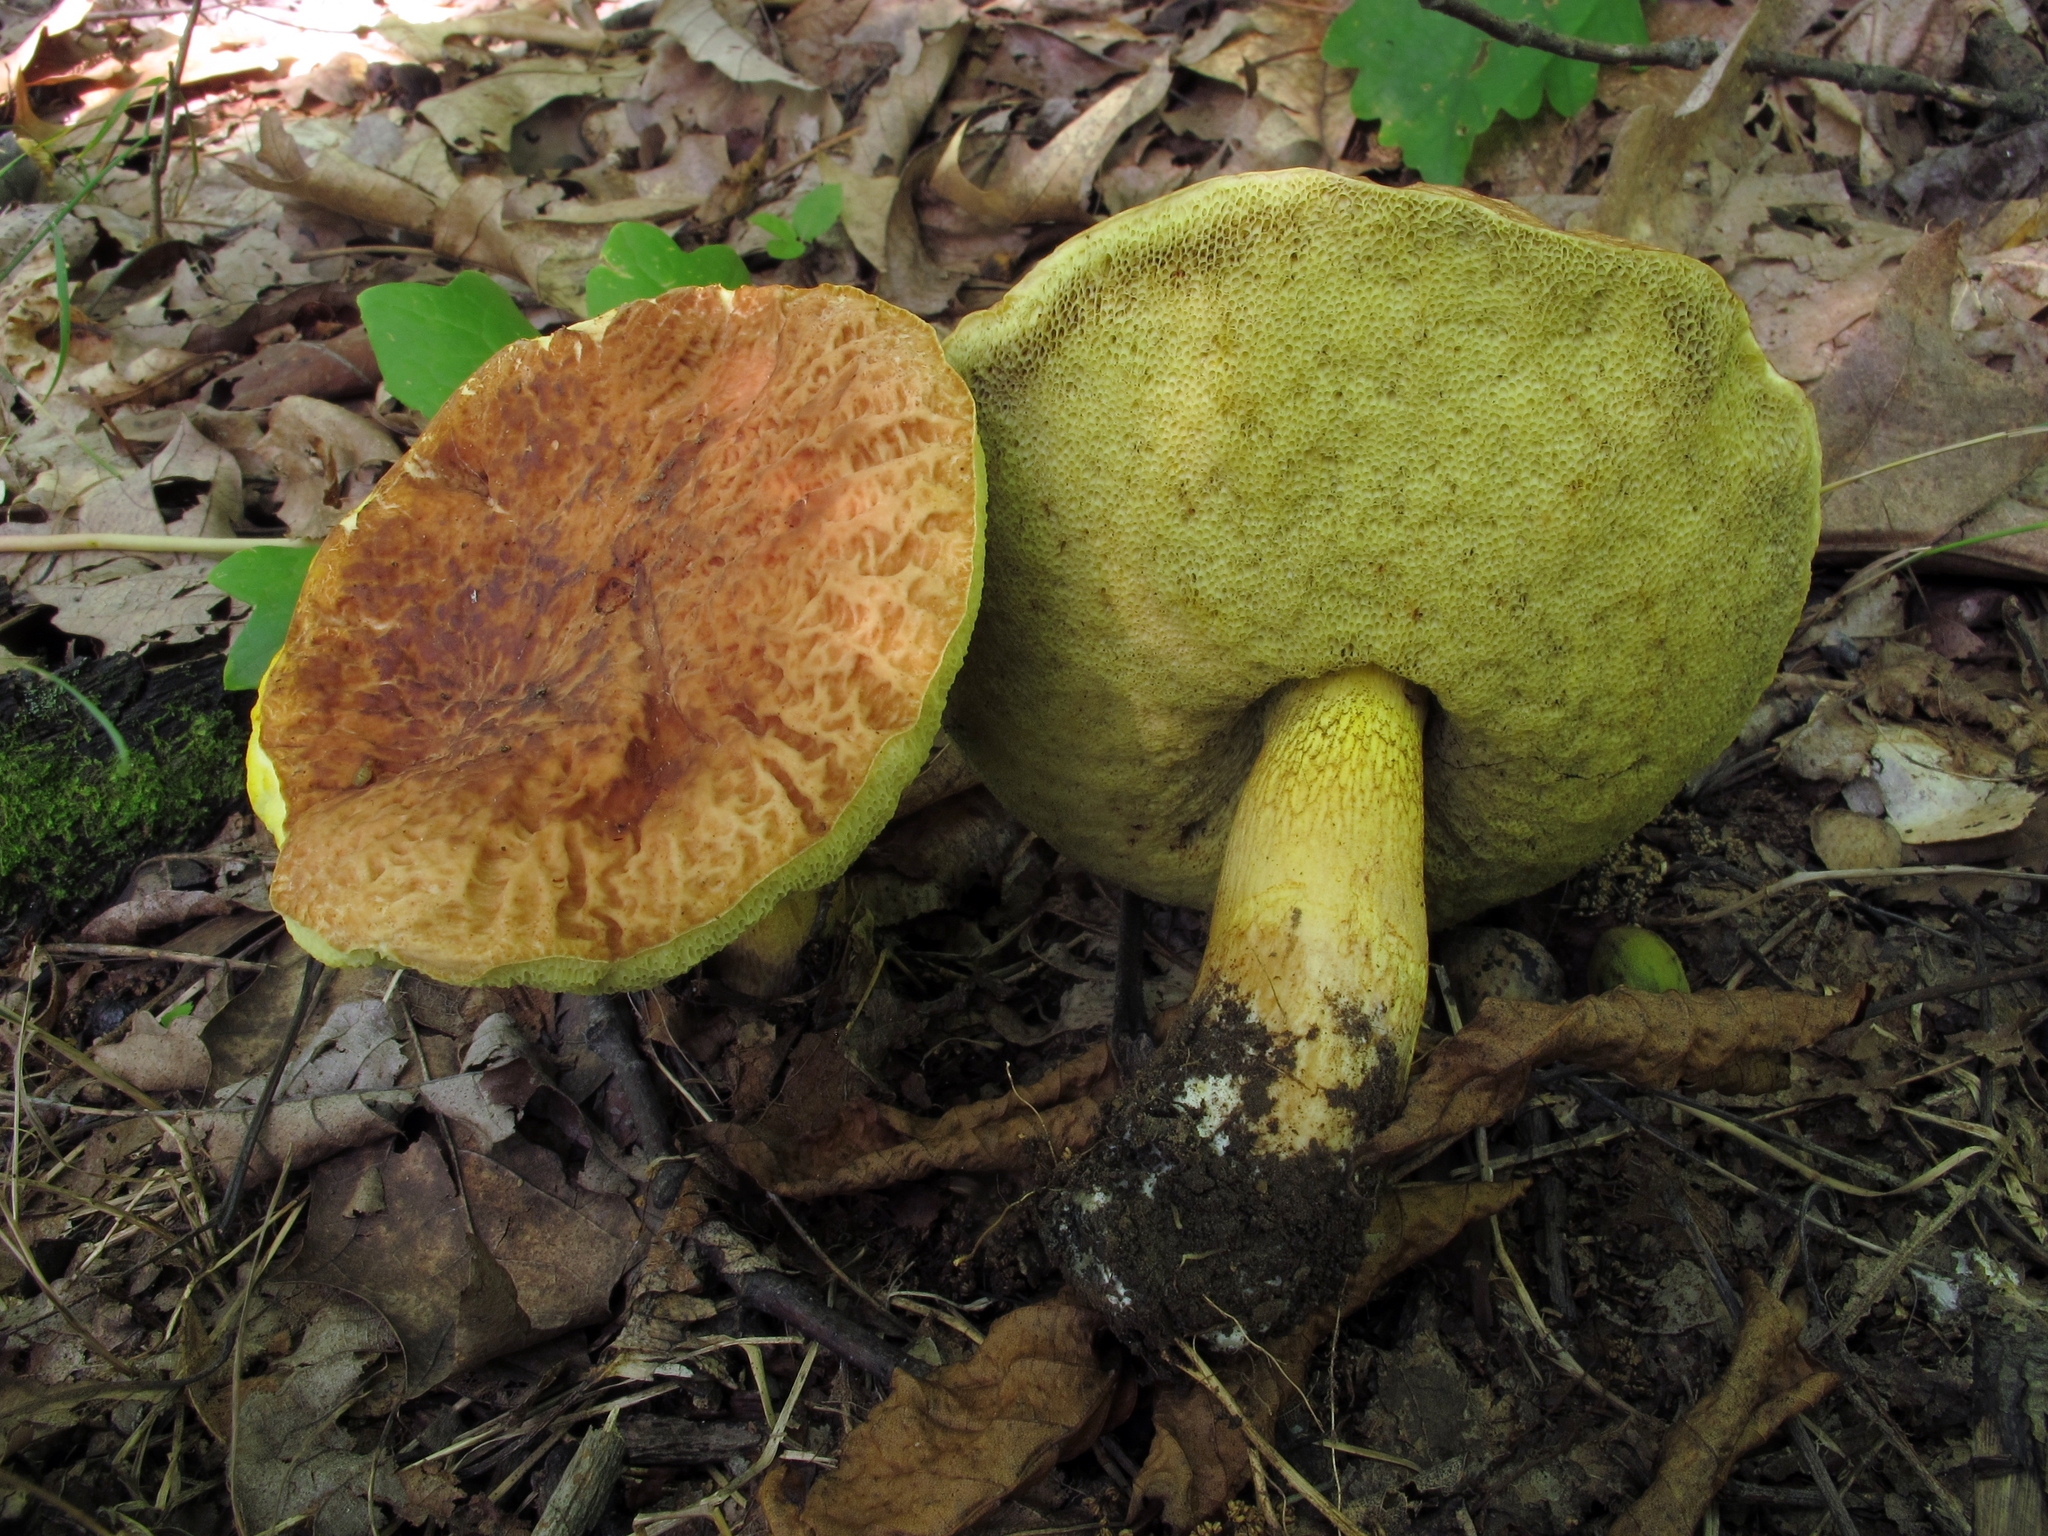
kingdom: Fungi
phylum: Basidiomycota
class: Agaricomycetes
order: Boletales
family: Boletaceae
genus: Hemileccinum
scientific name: Hemileccinum hortonii
